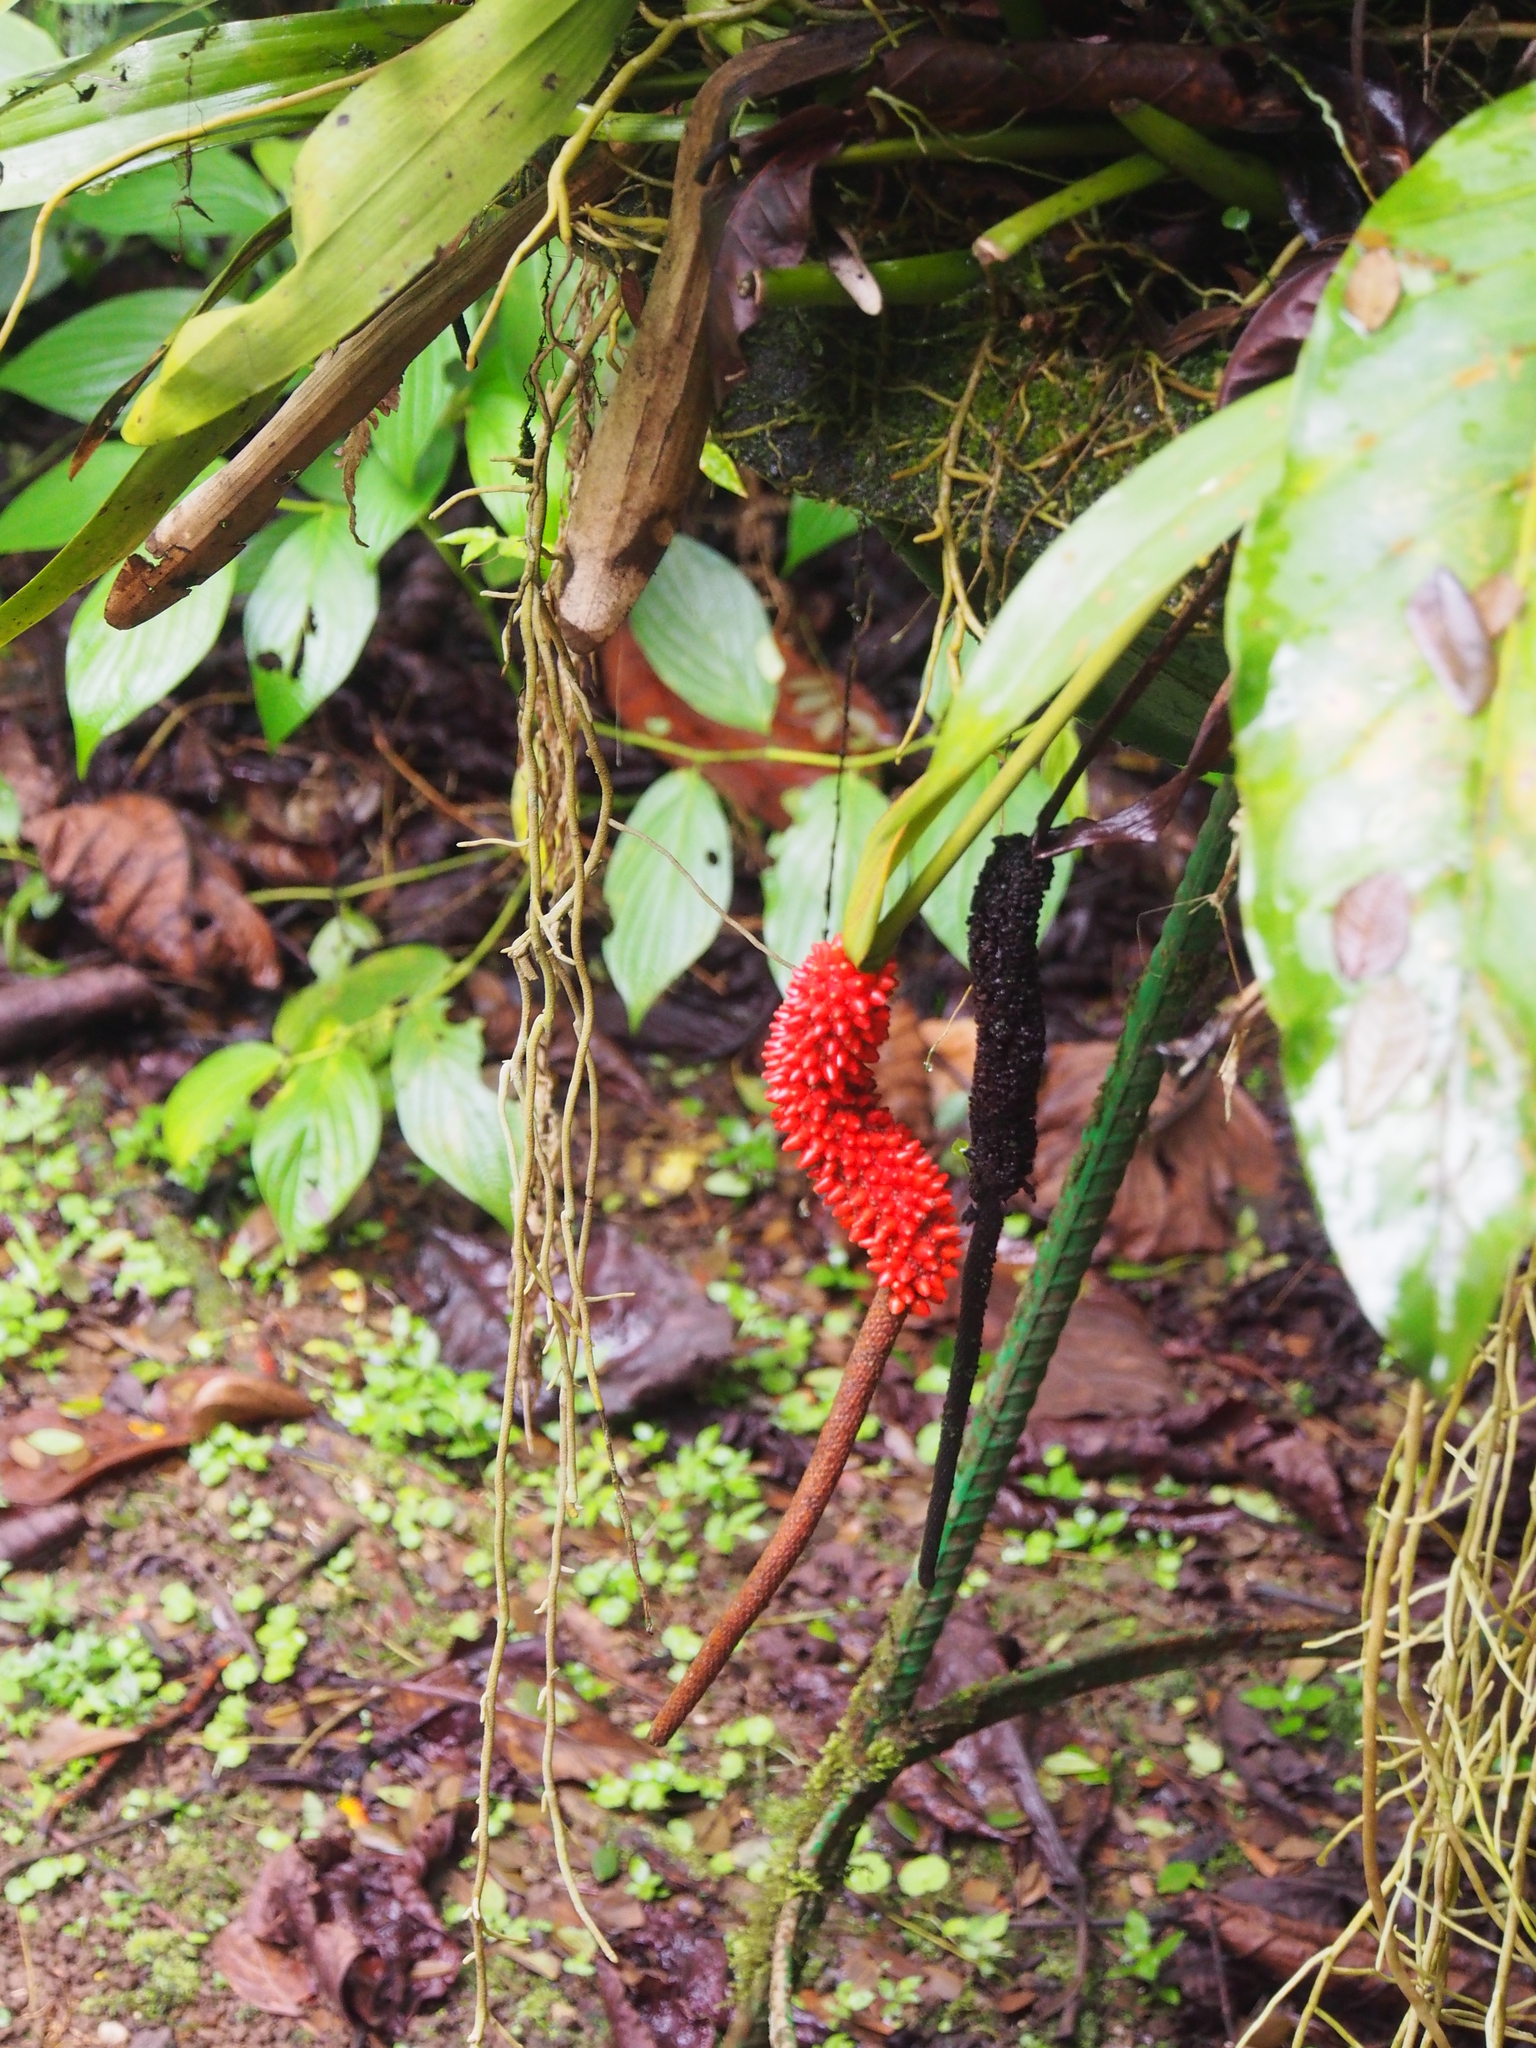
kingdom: Plantae
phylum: Tracheophyta
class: Liliopsida
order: Alismatales
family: Araceae
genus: Anthurium
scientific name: Anthurium upalaense
